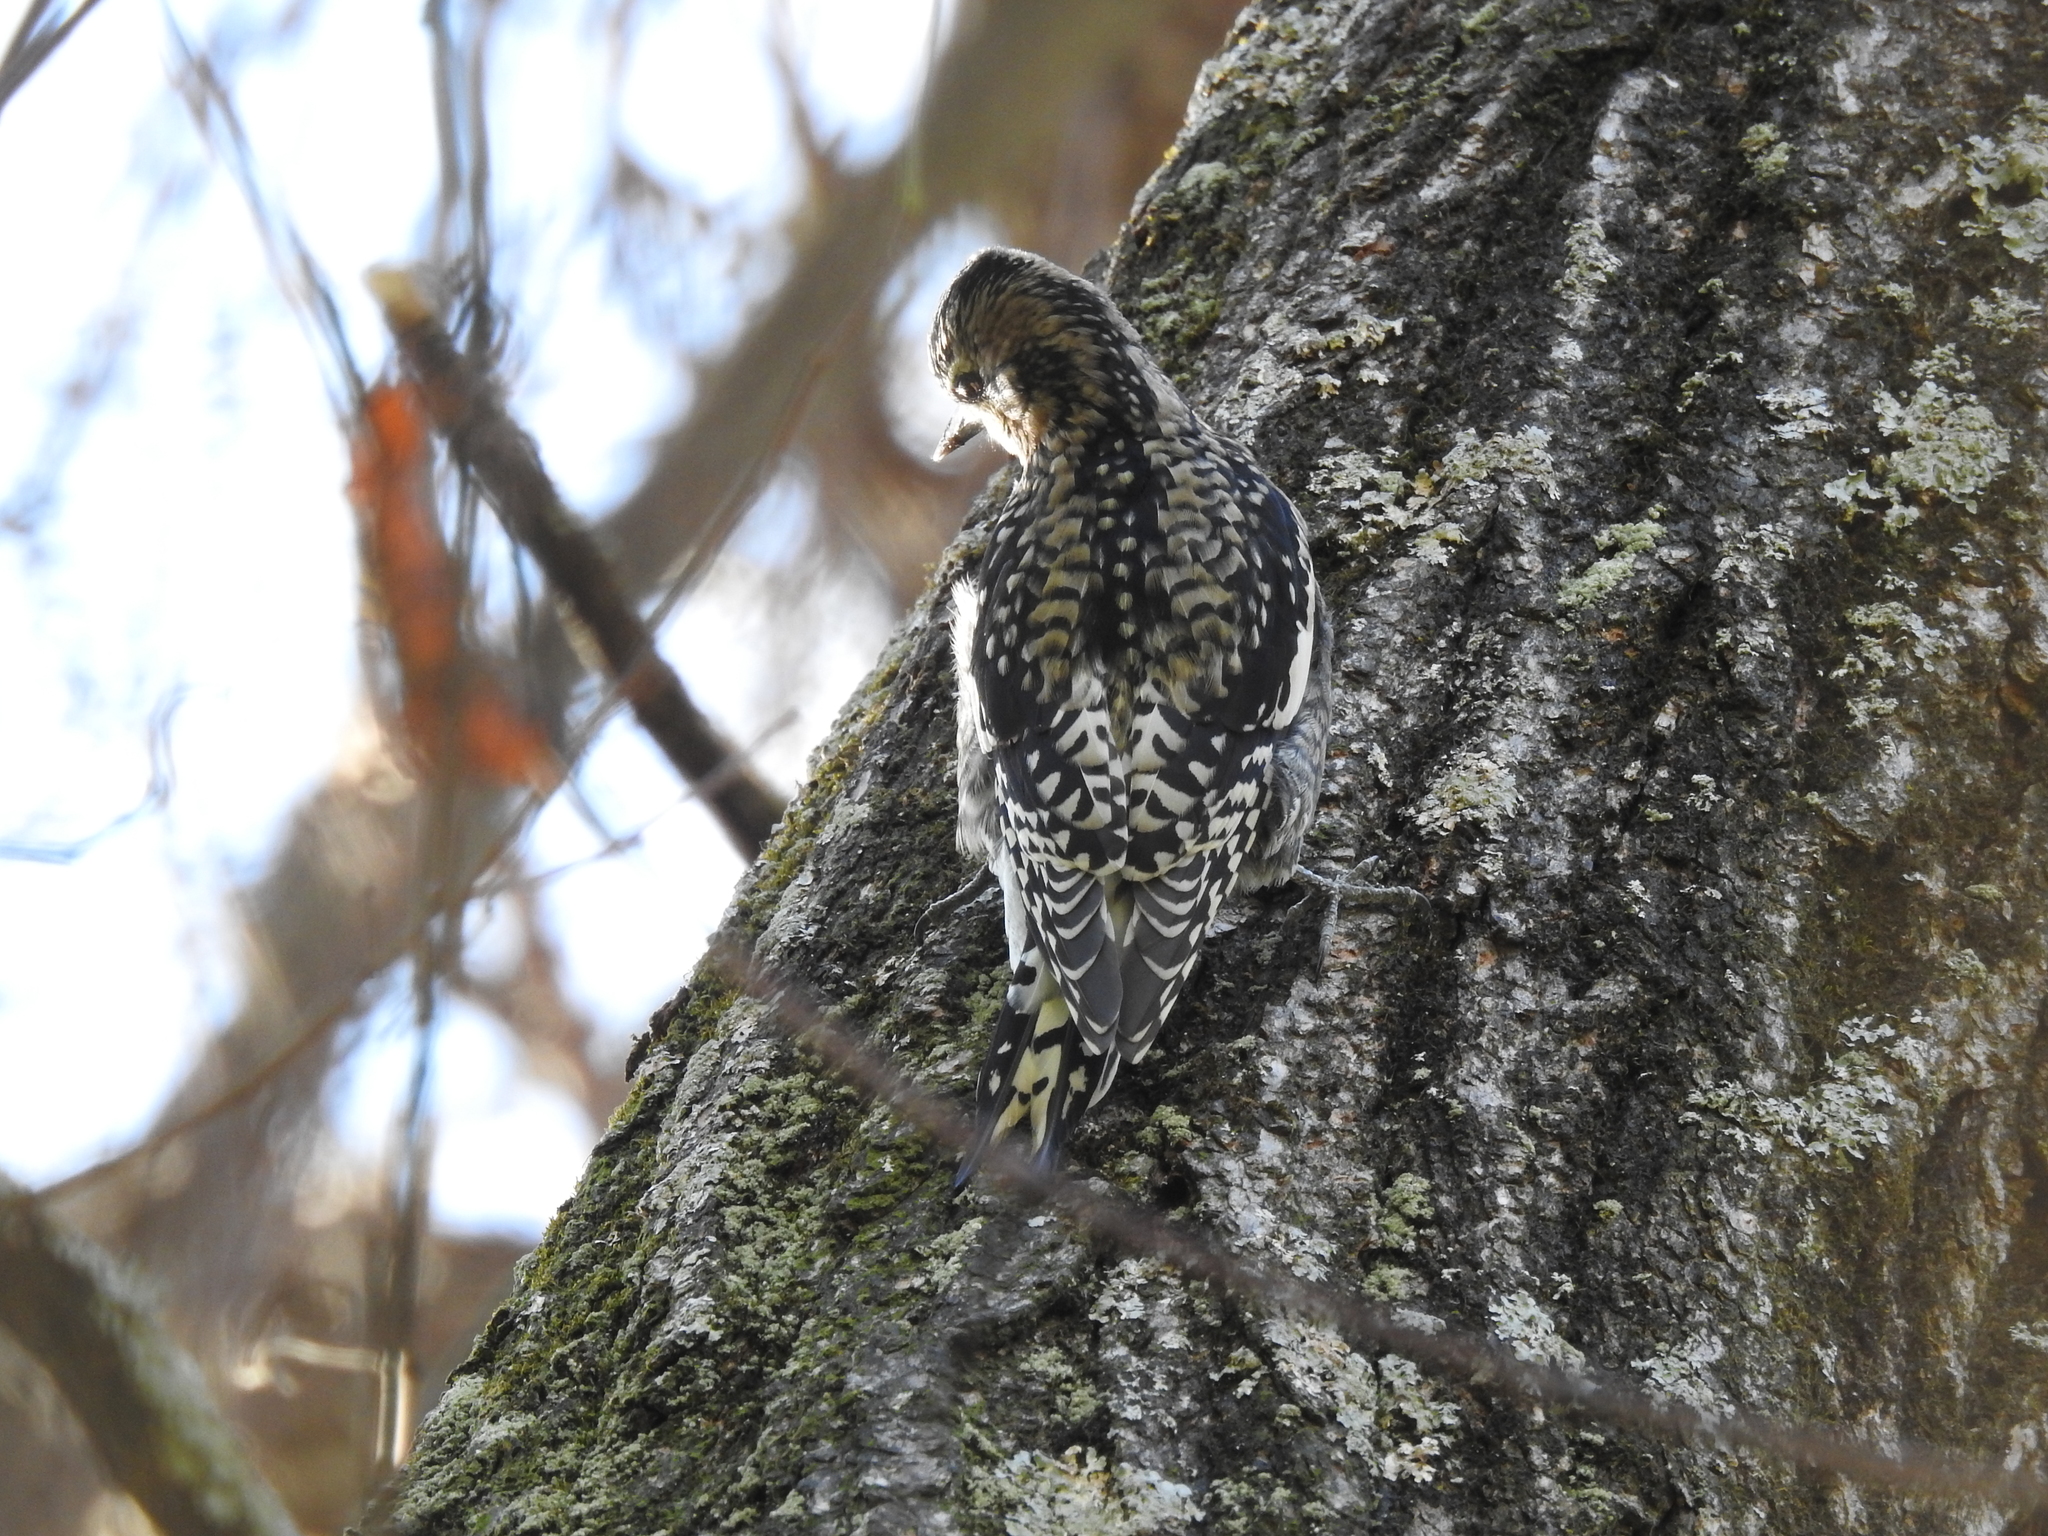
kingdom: Animalia
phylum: Chordata
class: Aves
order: Piciformes
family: Picidae
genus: Sphyrapicus
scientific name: Sphyrapicus varius
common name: Yellow-bellied sapsucker
